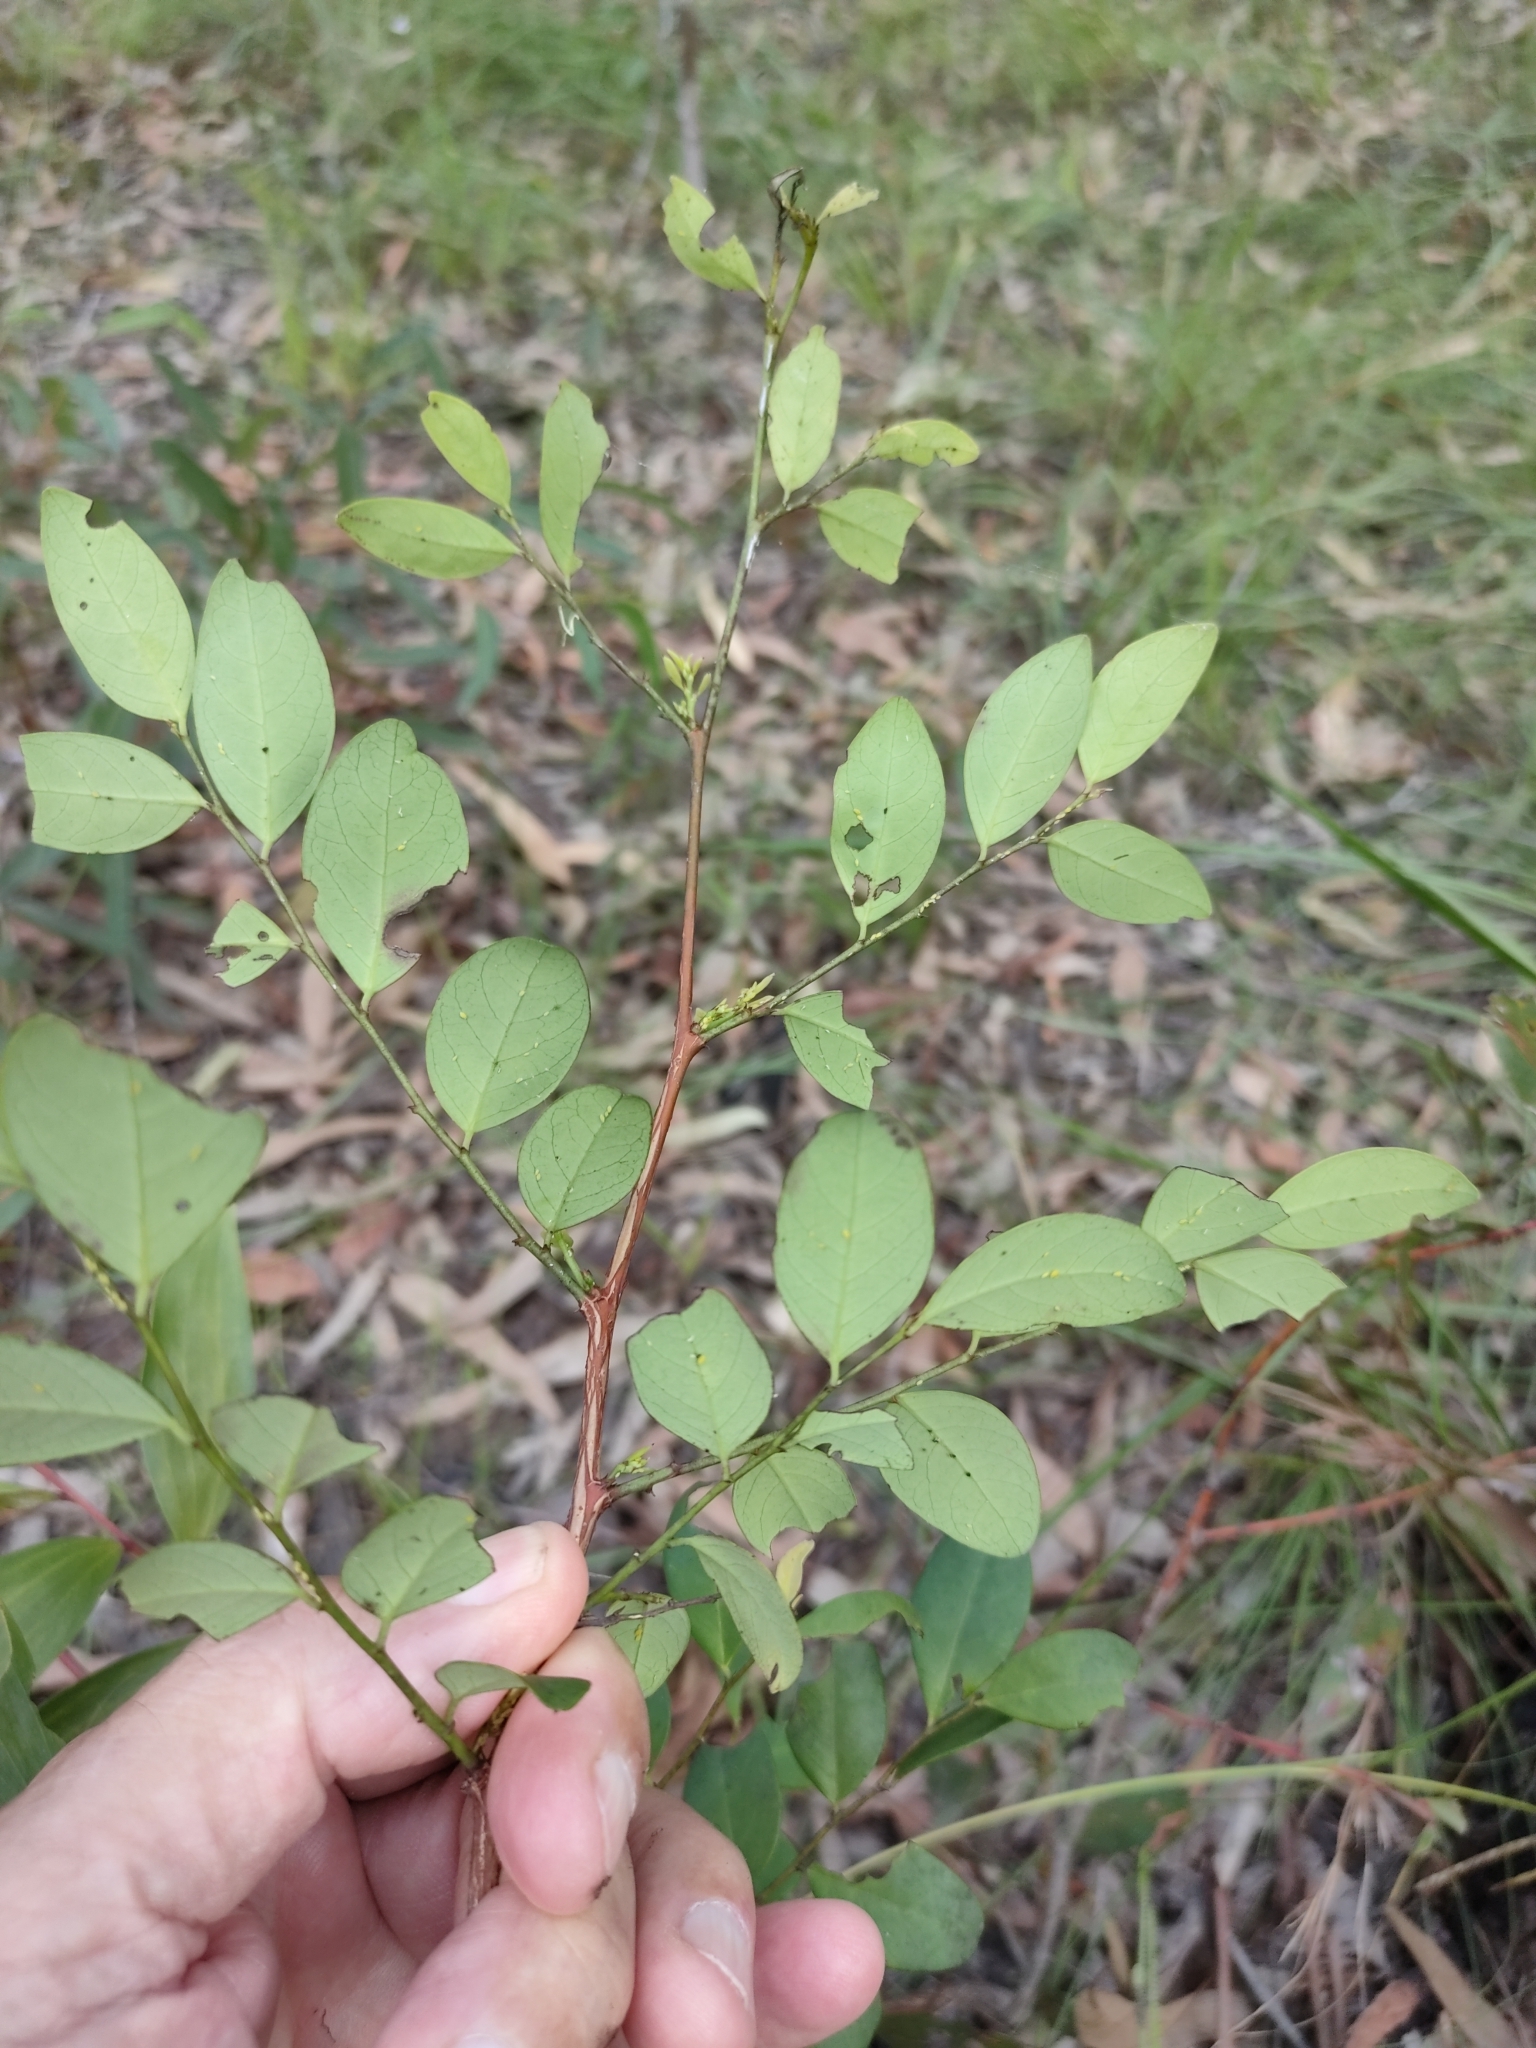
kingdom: Plantae
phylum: Tracheophyta
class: Magnoliopsida
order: Malpighiales
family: Phyllanthaceae
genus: Breynia
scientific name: Breynia oblongifolia
